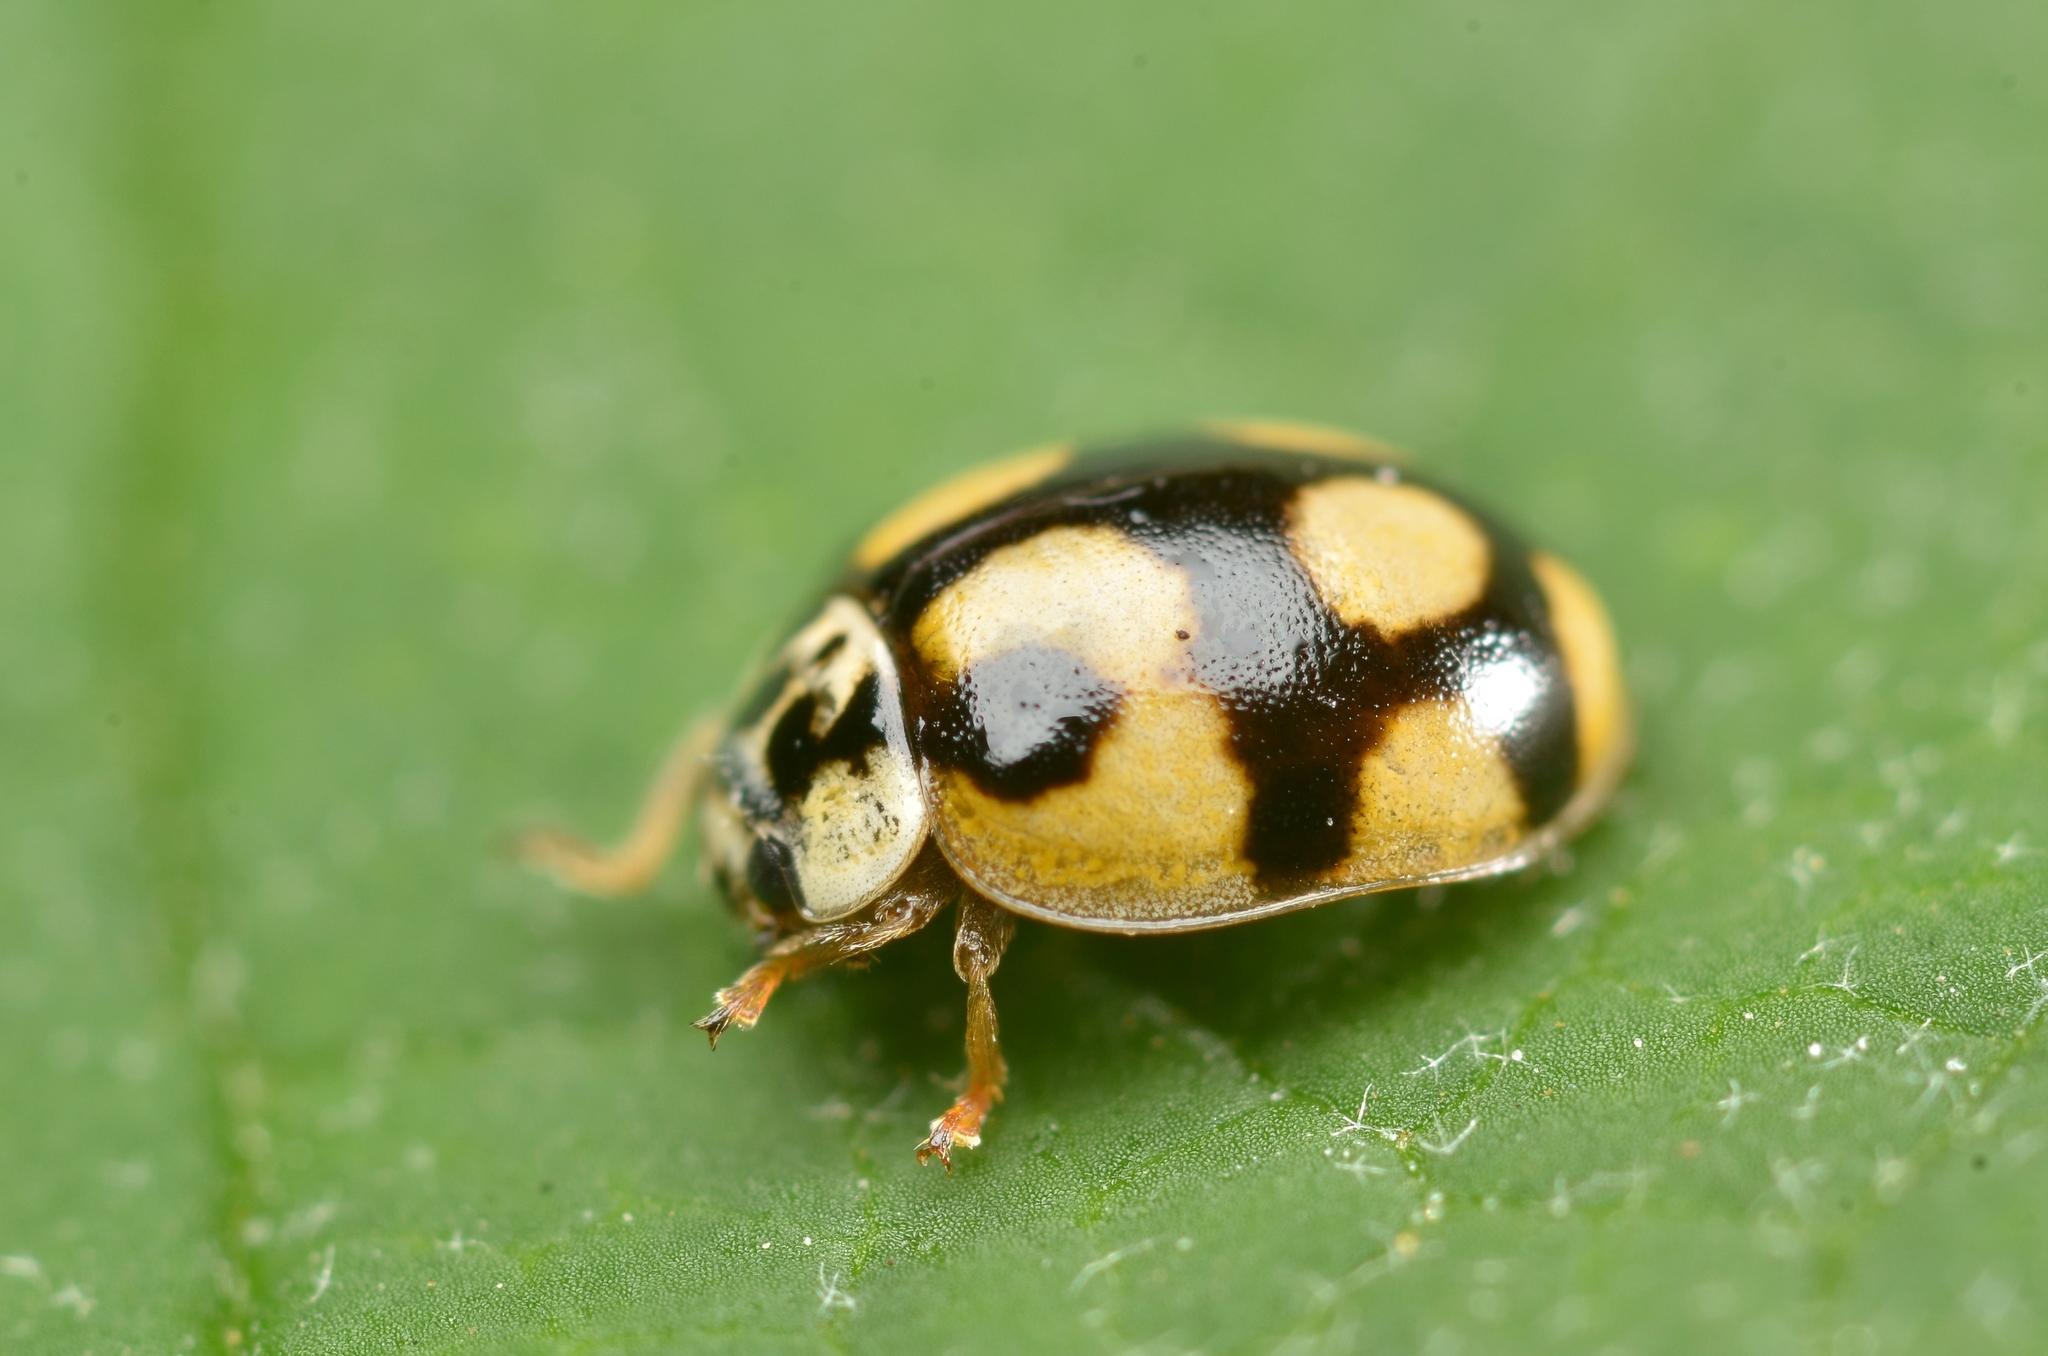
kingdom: Animalia
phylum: Arthropoda
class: Insecta
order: Coleoptera
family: Coccinellidae
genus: Adalia
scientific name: Adalia decempunctata
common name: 10-spot ladybird
